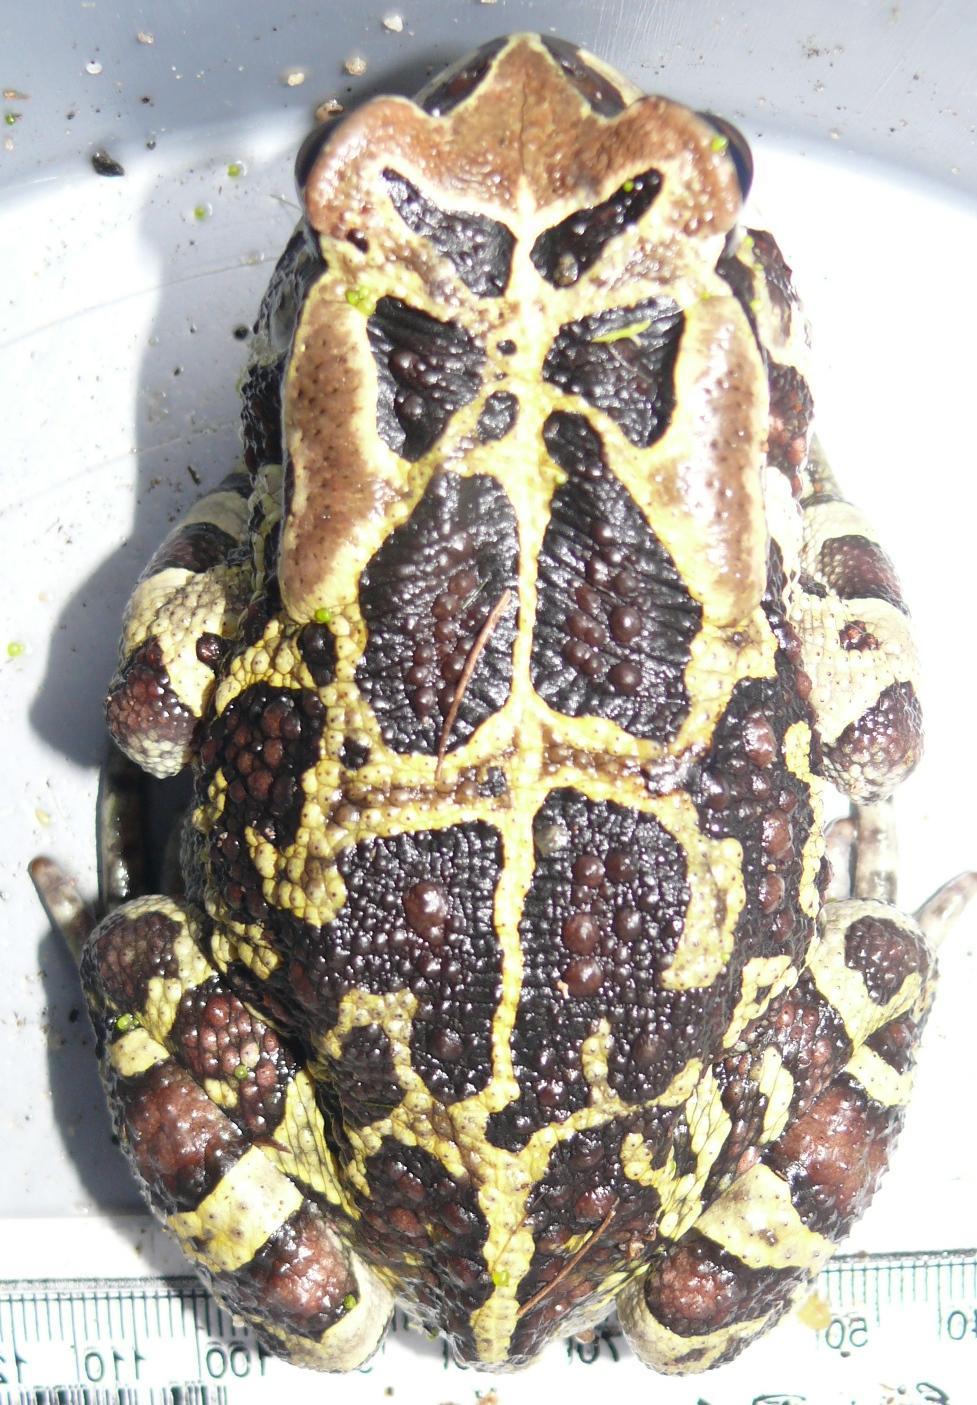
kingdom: Animalia
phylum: Chordata
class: Amphibia
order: Anura
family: Bufonidae
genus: Sclerophrys
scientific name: Sclerophrys pantherina
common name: Panther toad
